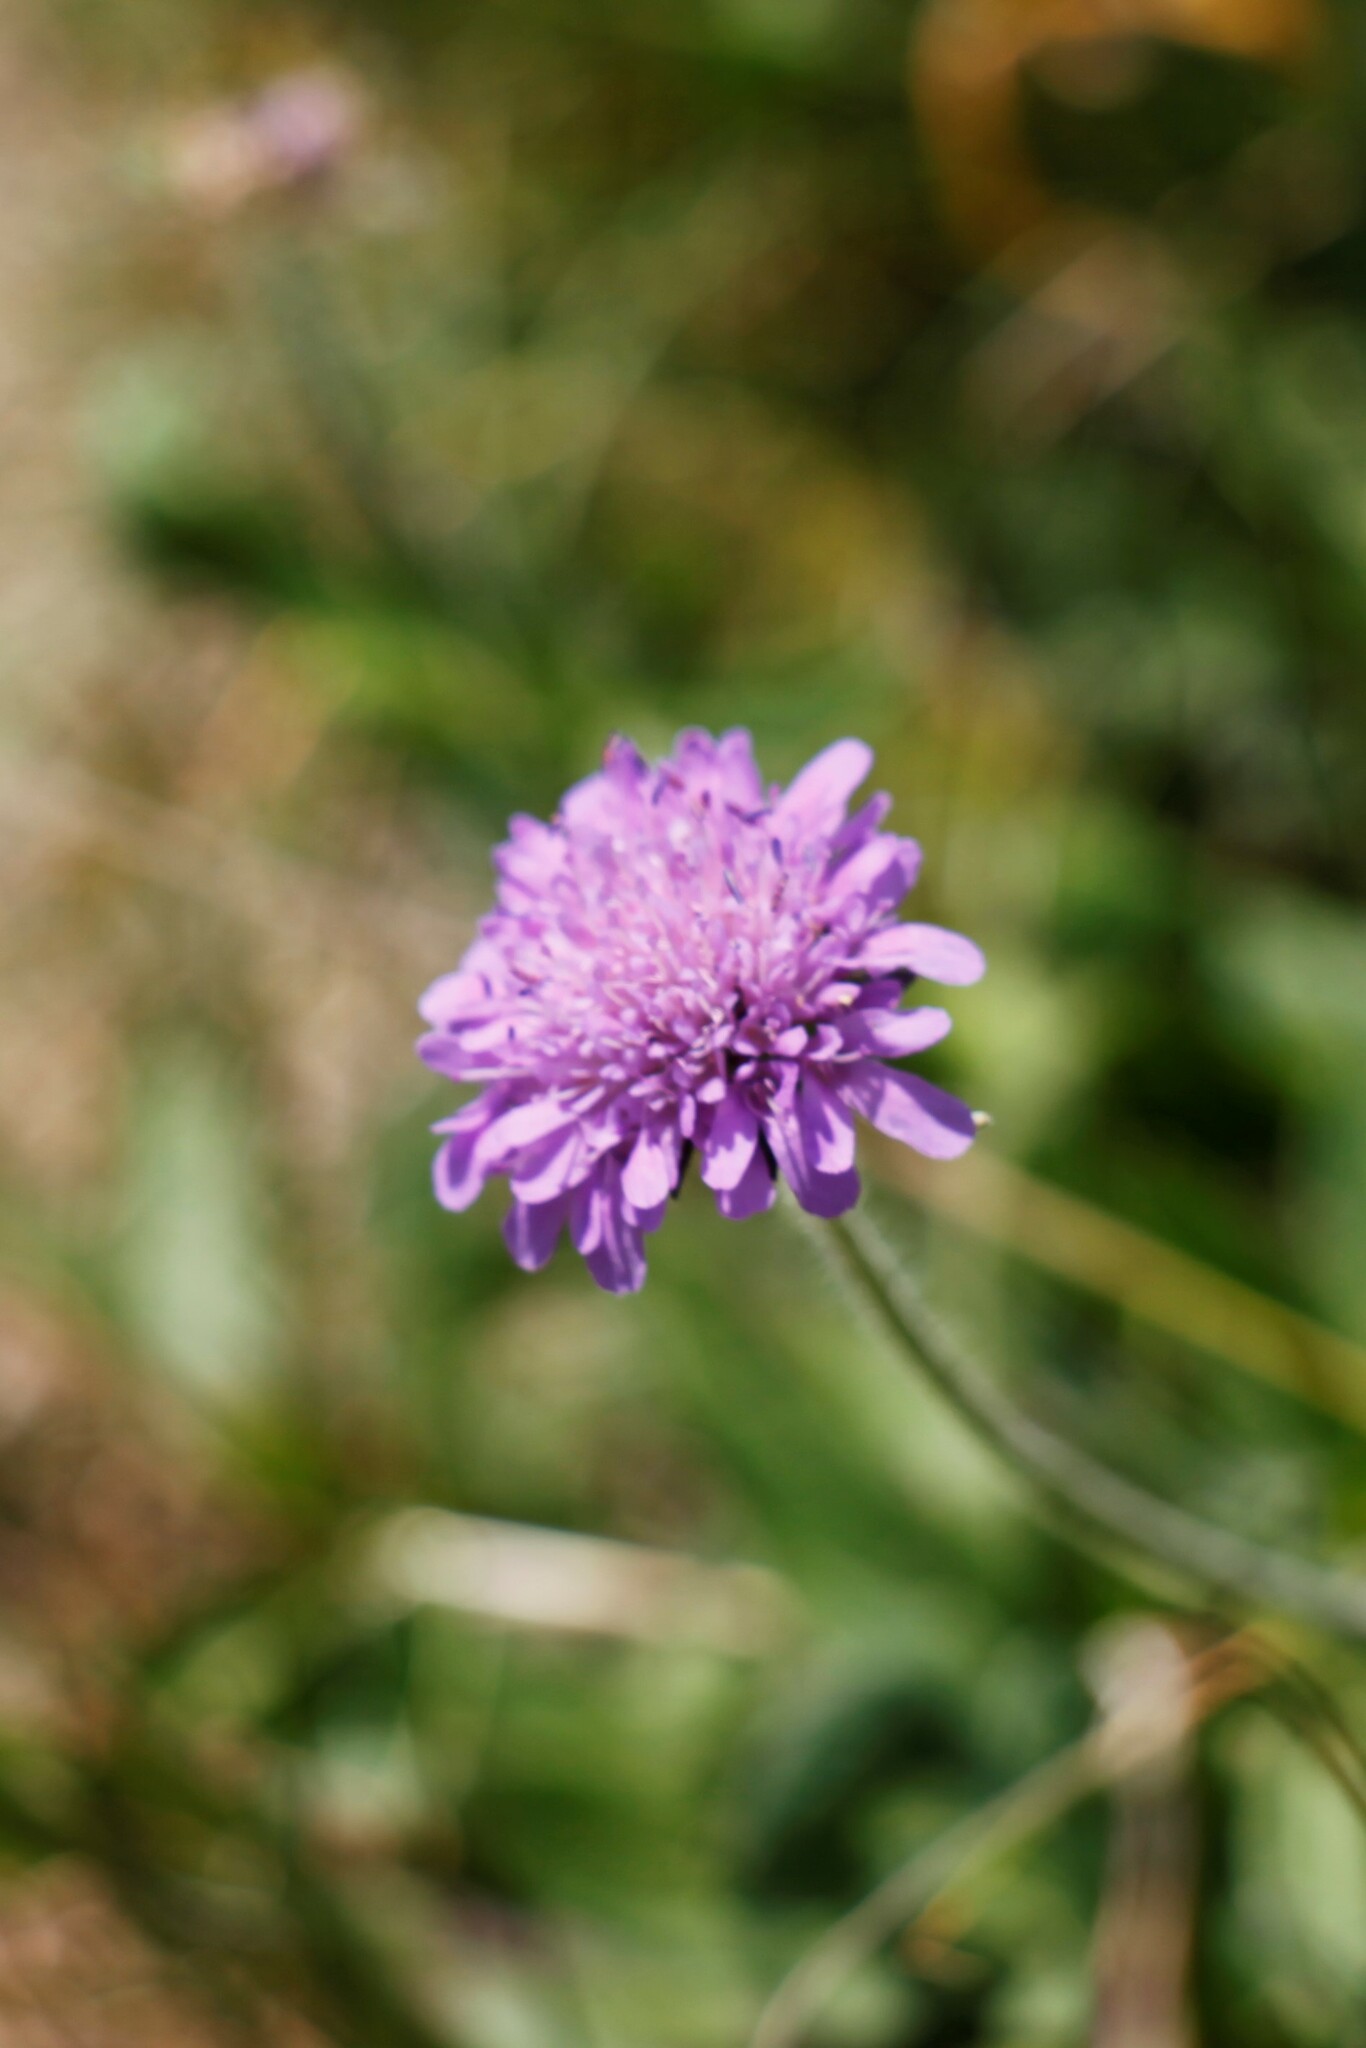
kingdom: Plantae
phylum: Tracheophyta
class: Magnoliopsida
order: Dipsacales
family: Caprifoliaceae
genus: Knautia
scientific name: Knautia arvensis
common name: Field scabiosa
